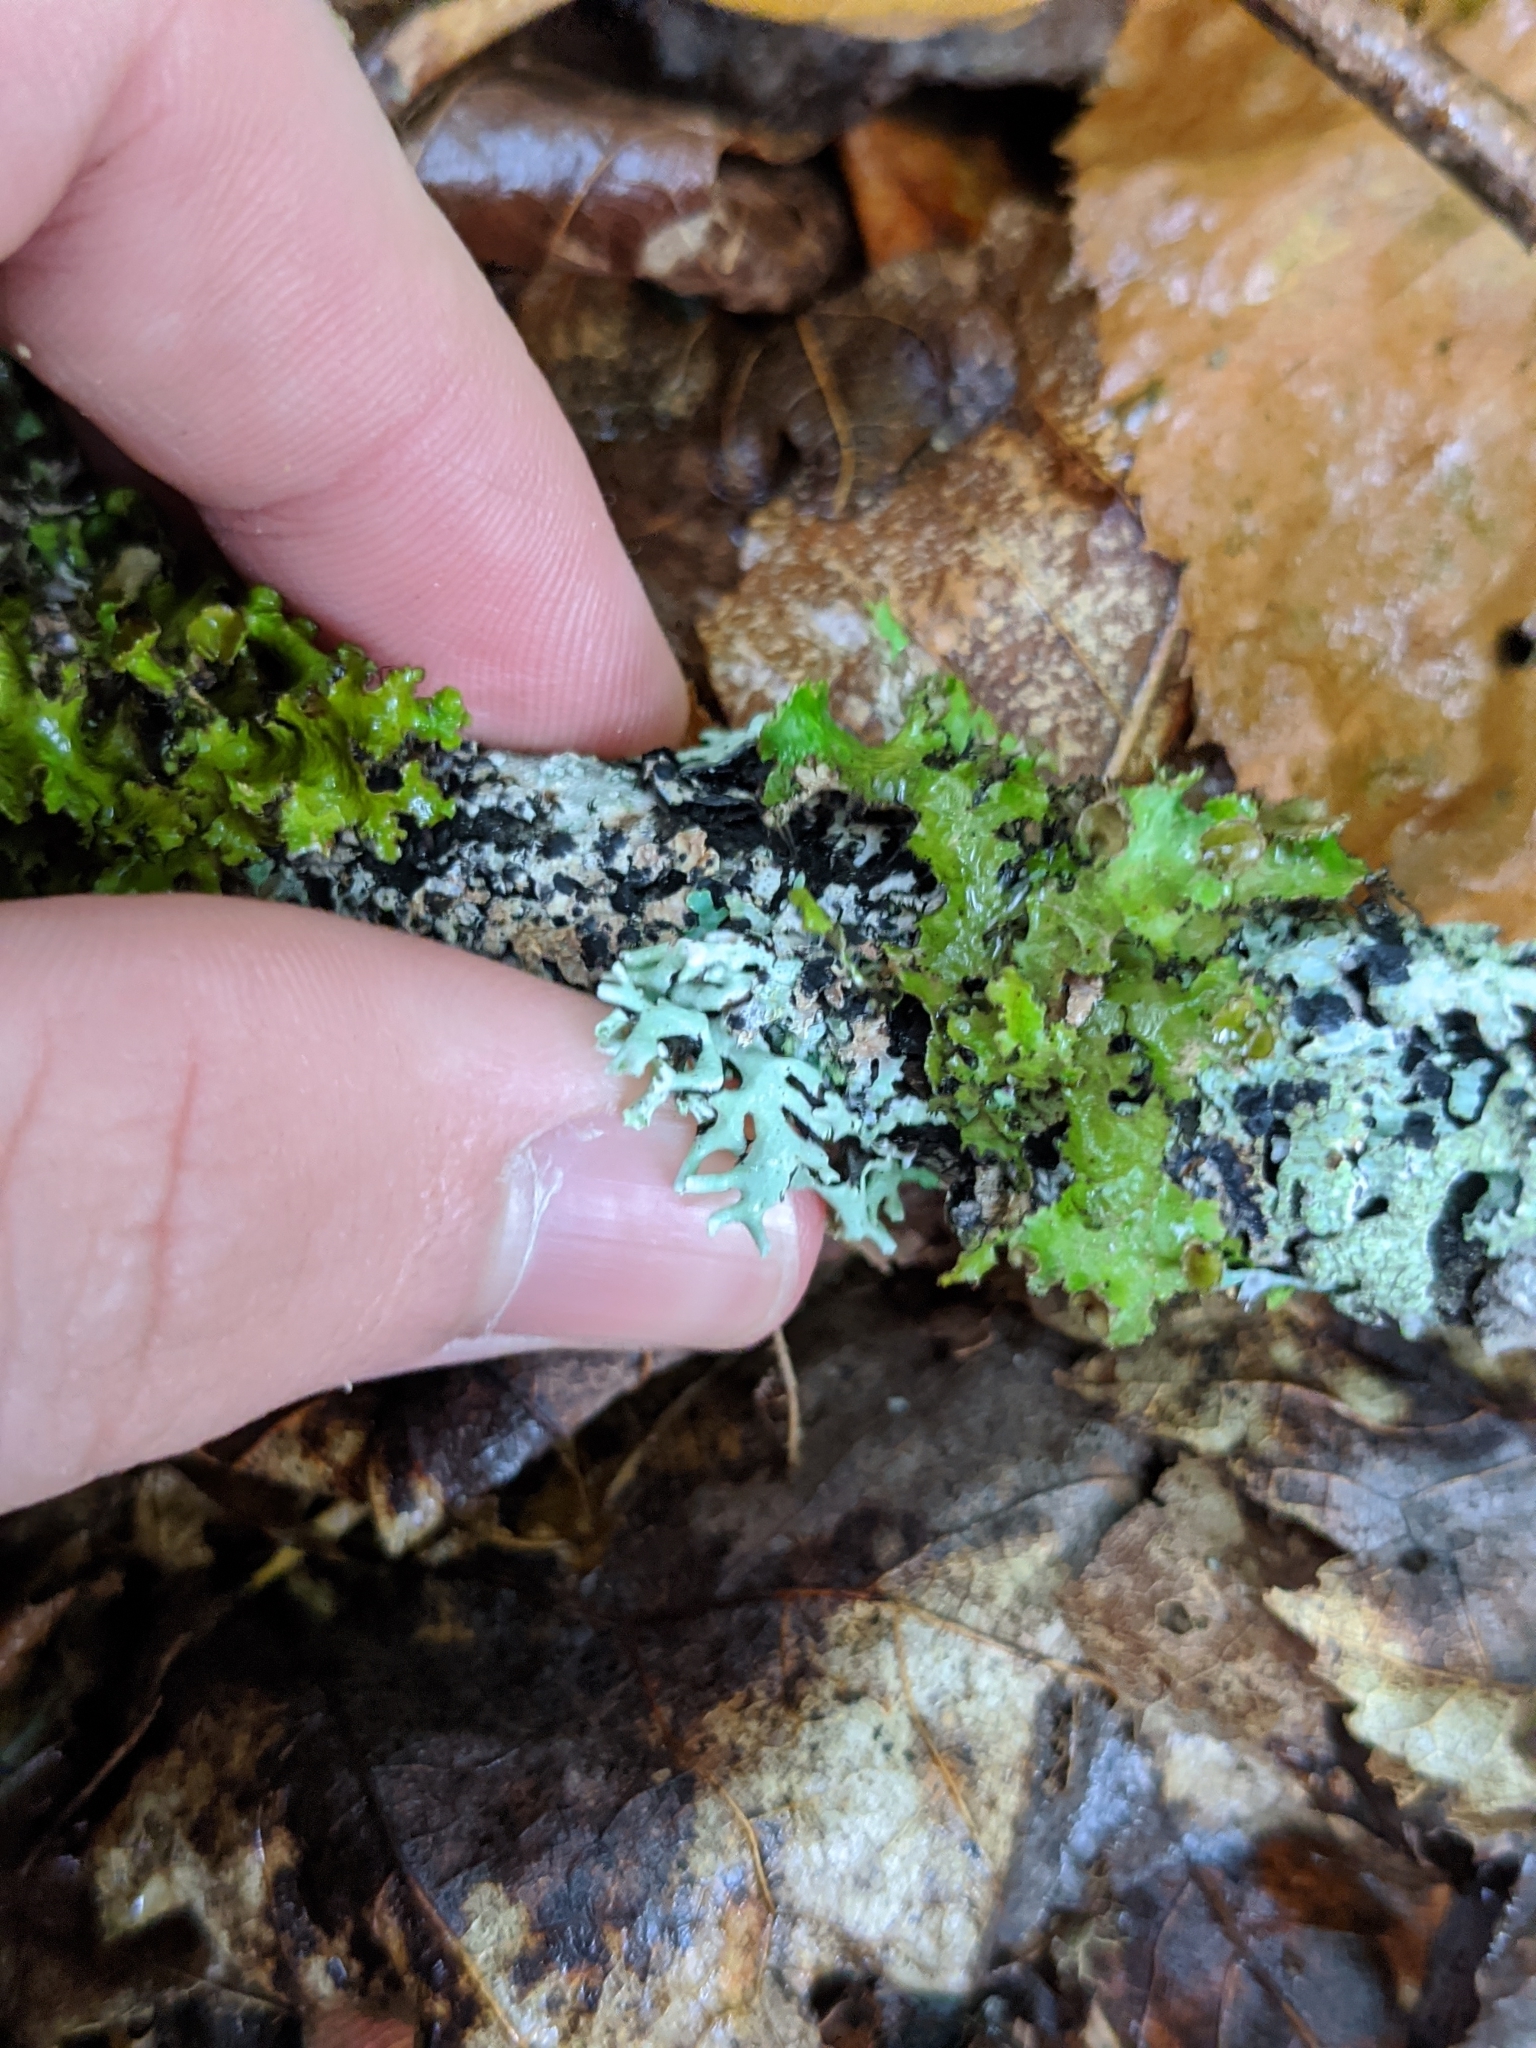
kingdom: Fungi
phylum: Ascomycota
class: Lecanoromycetes
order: Lecanorales
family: Parmeliaceae
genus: Hypogymnia
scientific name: Hypogymnia physodes
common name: Dark crottle
